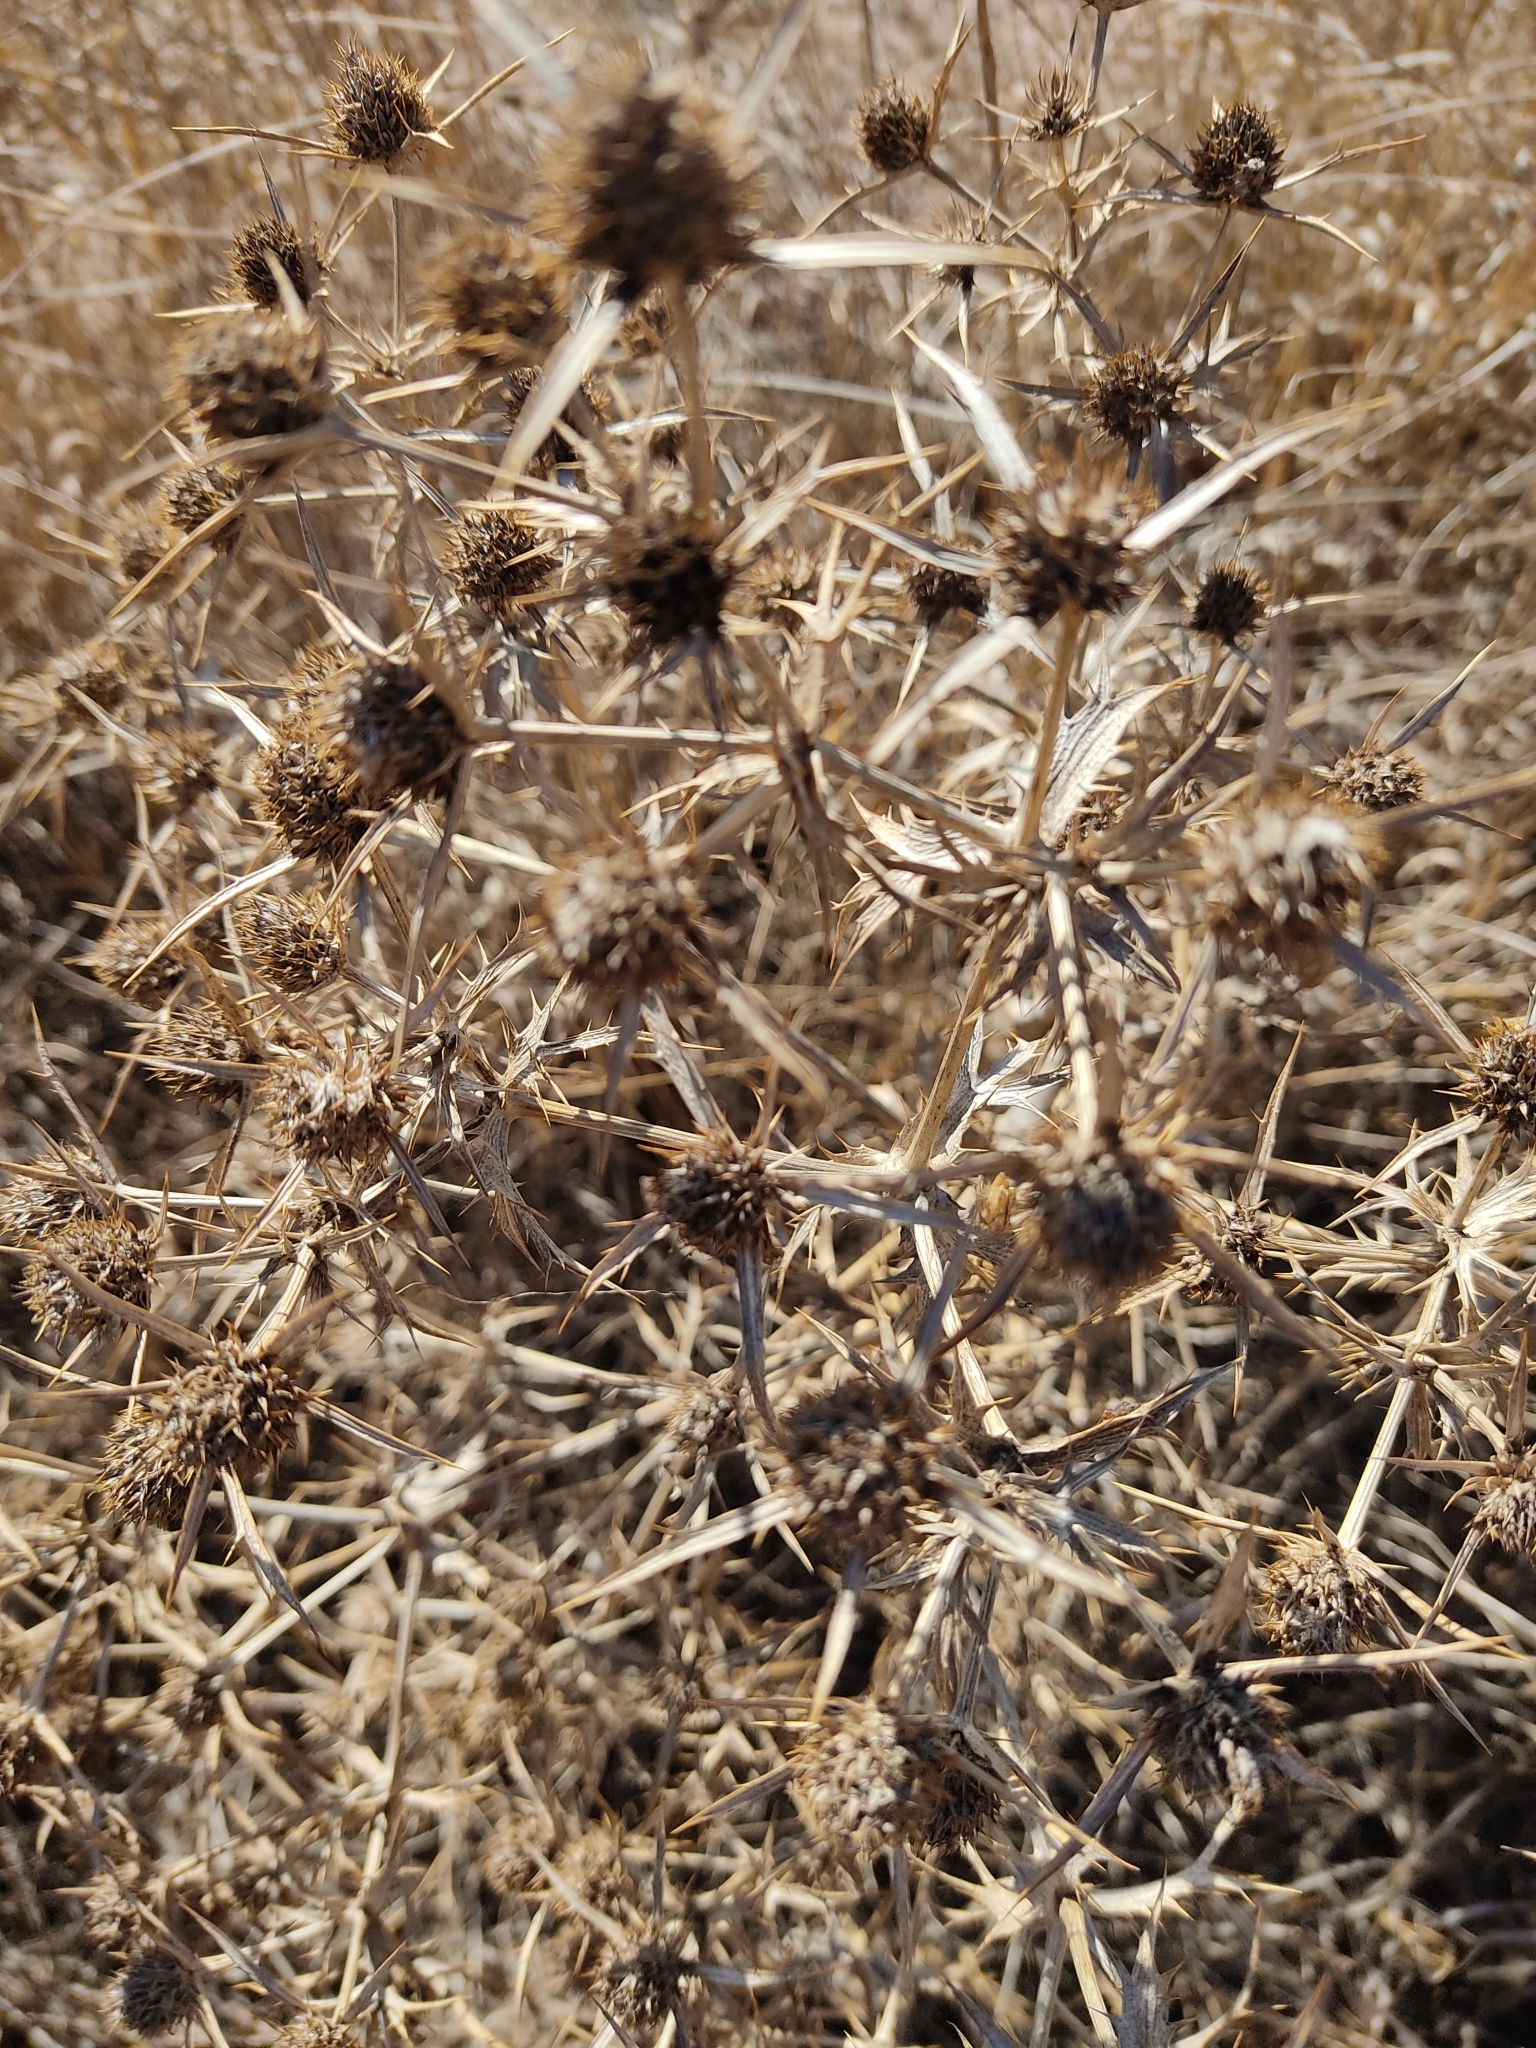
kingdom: Plantae
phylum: Tracheophyta
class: Magnoliopsida
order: Apiales
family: Apiaceae
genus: Eryngium
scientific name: Eryngium campestre
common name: Field eryngo
